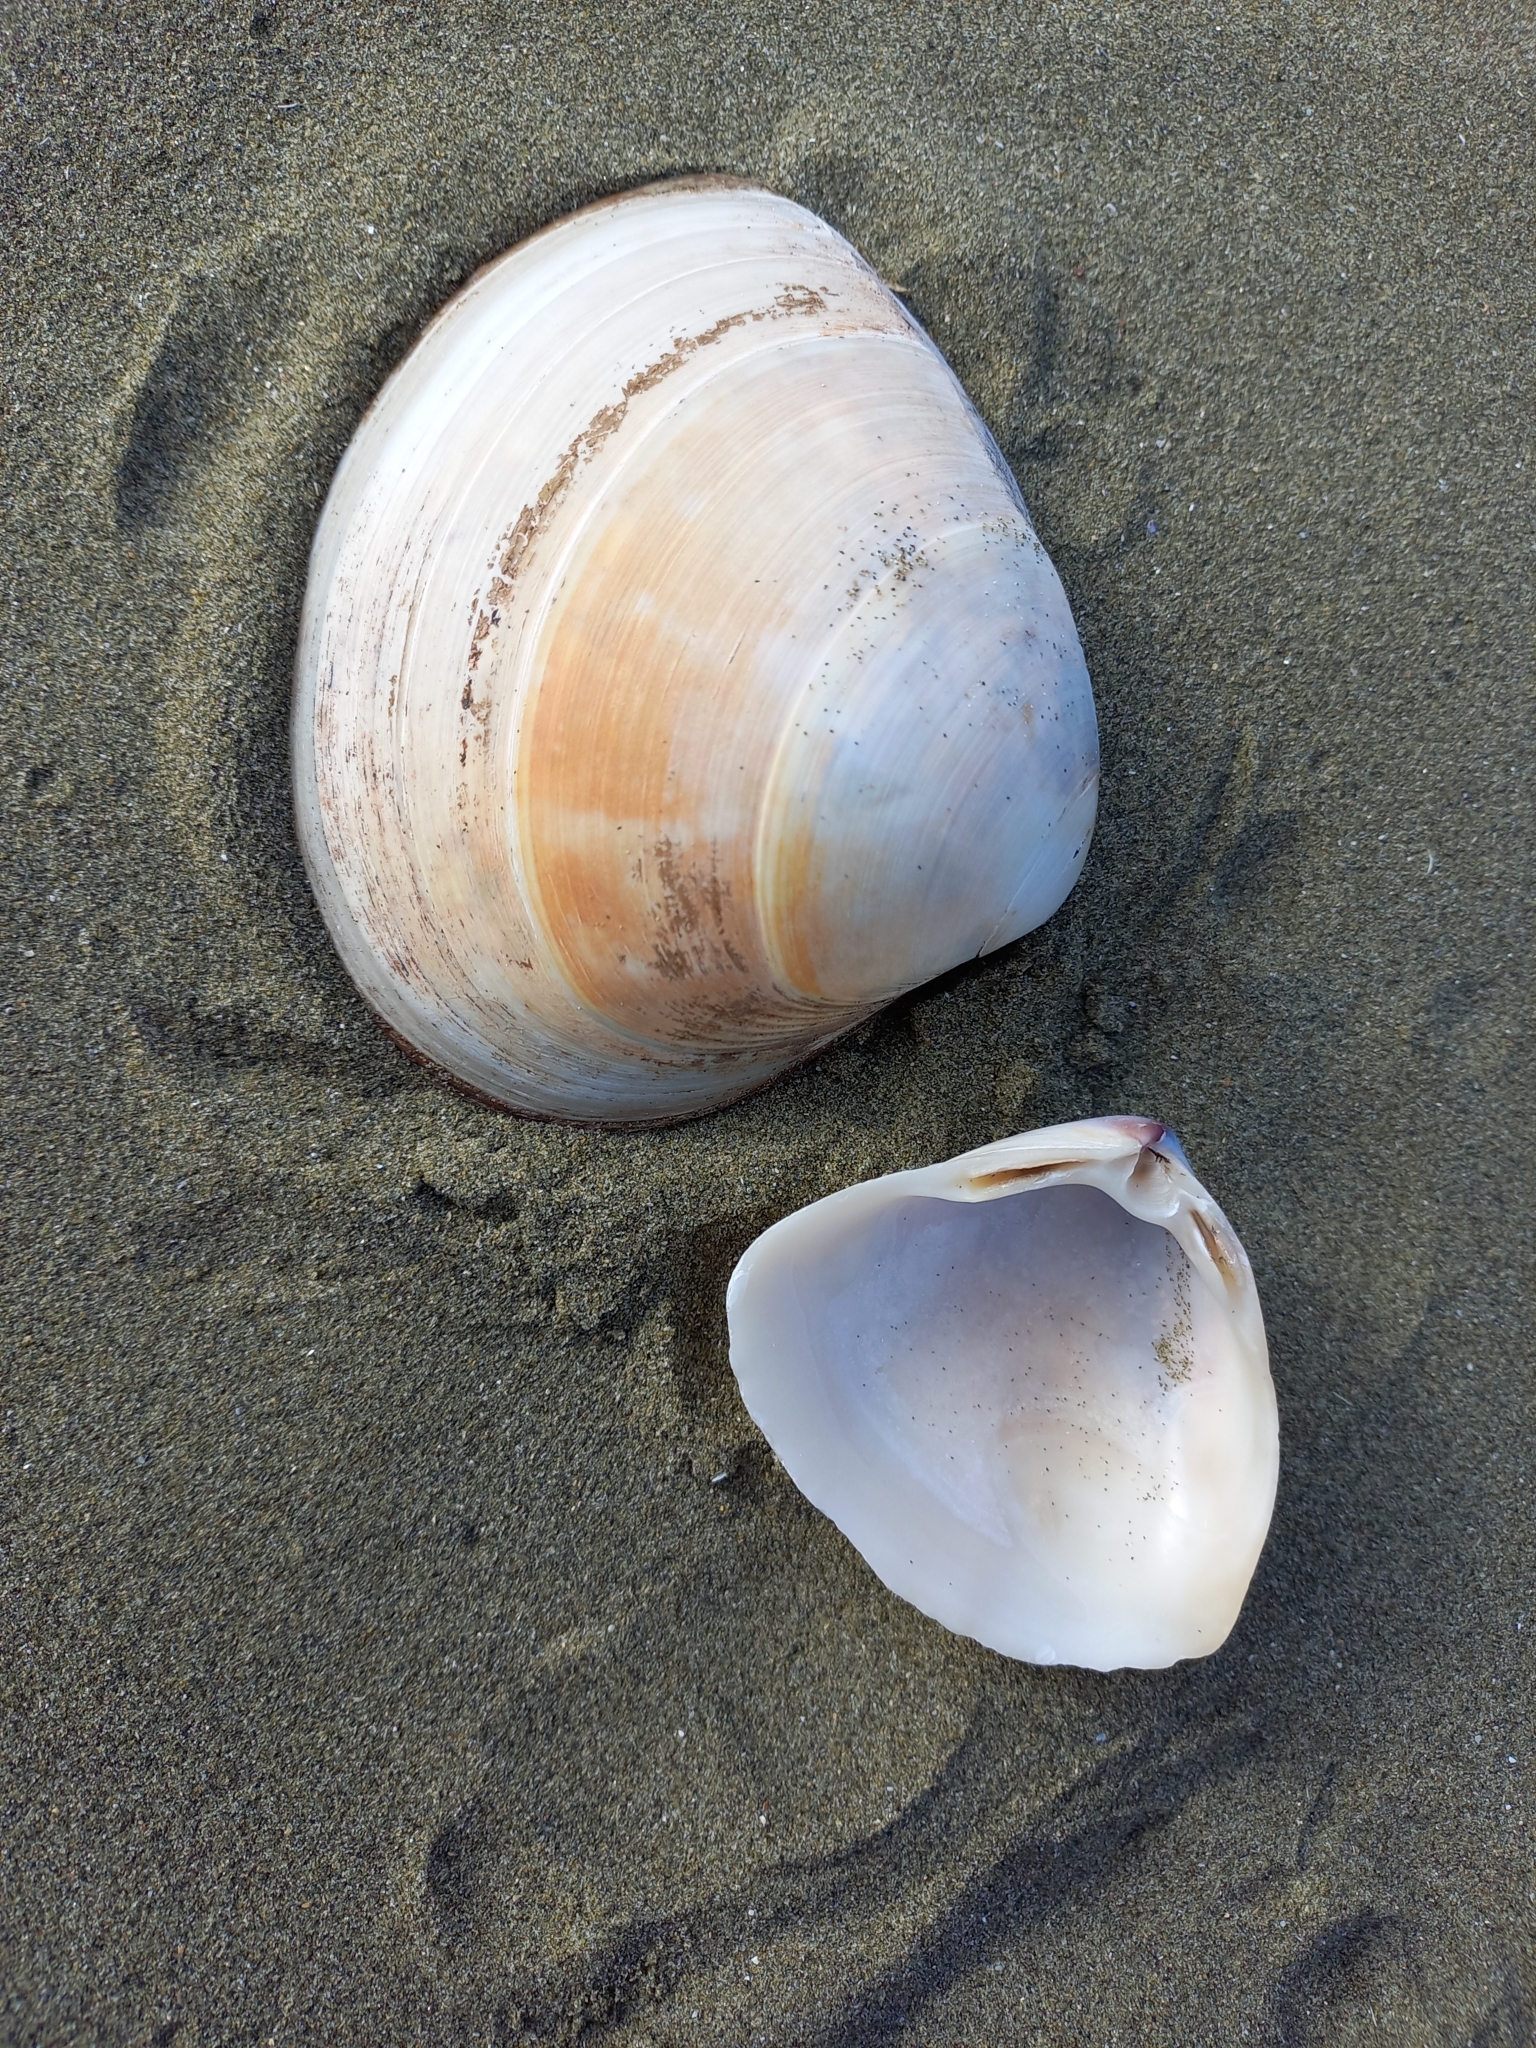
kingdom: Animalia
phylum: Mollusca
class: Bivalvia
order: Venerida
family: Mactridae
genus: Crassula
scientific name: Crassula aequilatera
